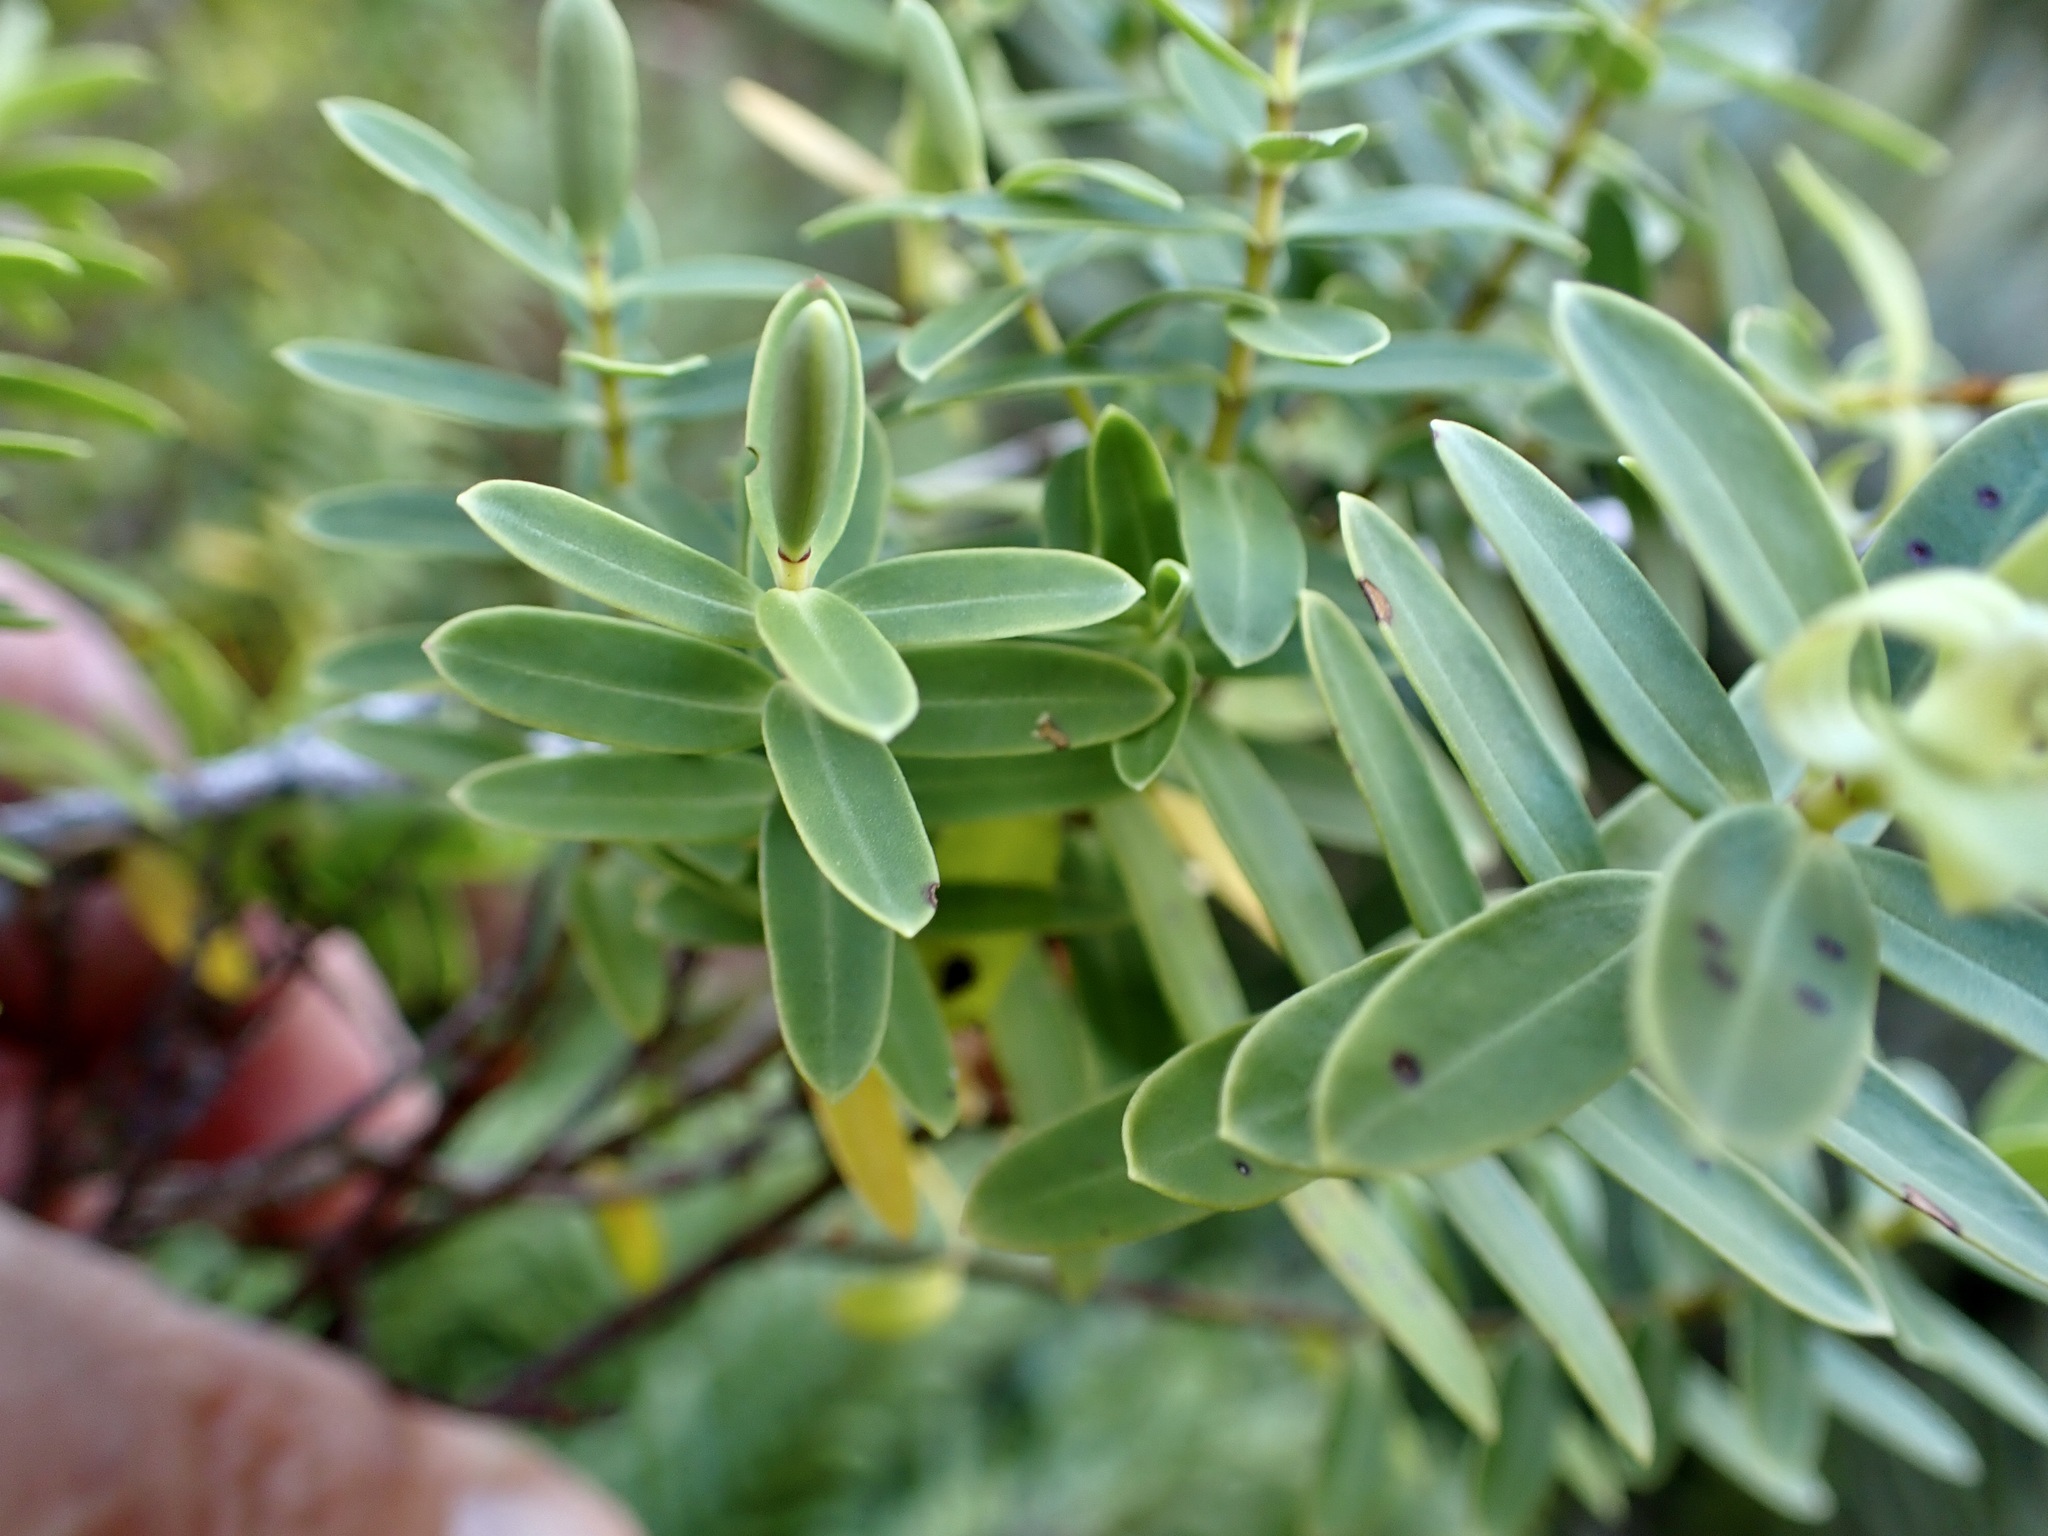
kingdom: Plantae
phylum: Tracheophyta
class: Magnoliopsida
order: Lamiales
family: Plantaginaceae
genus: Veronica
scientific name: Veronica glaucophylla
